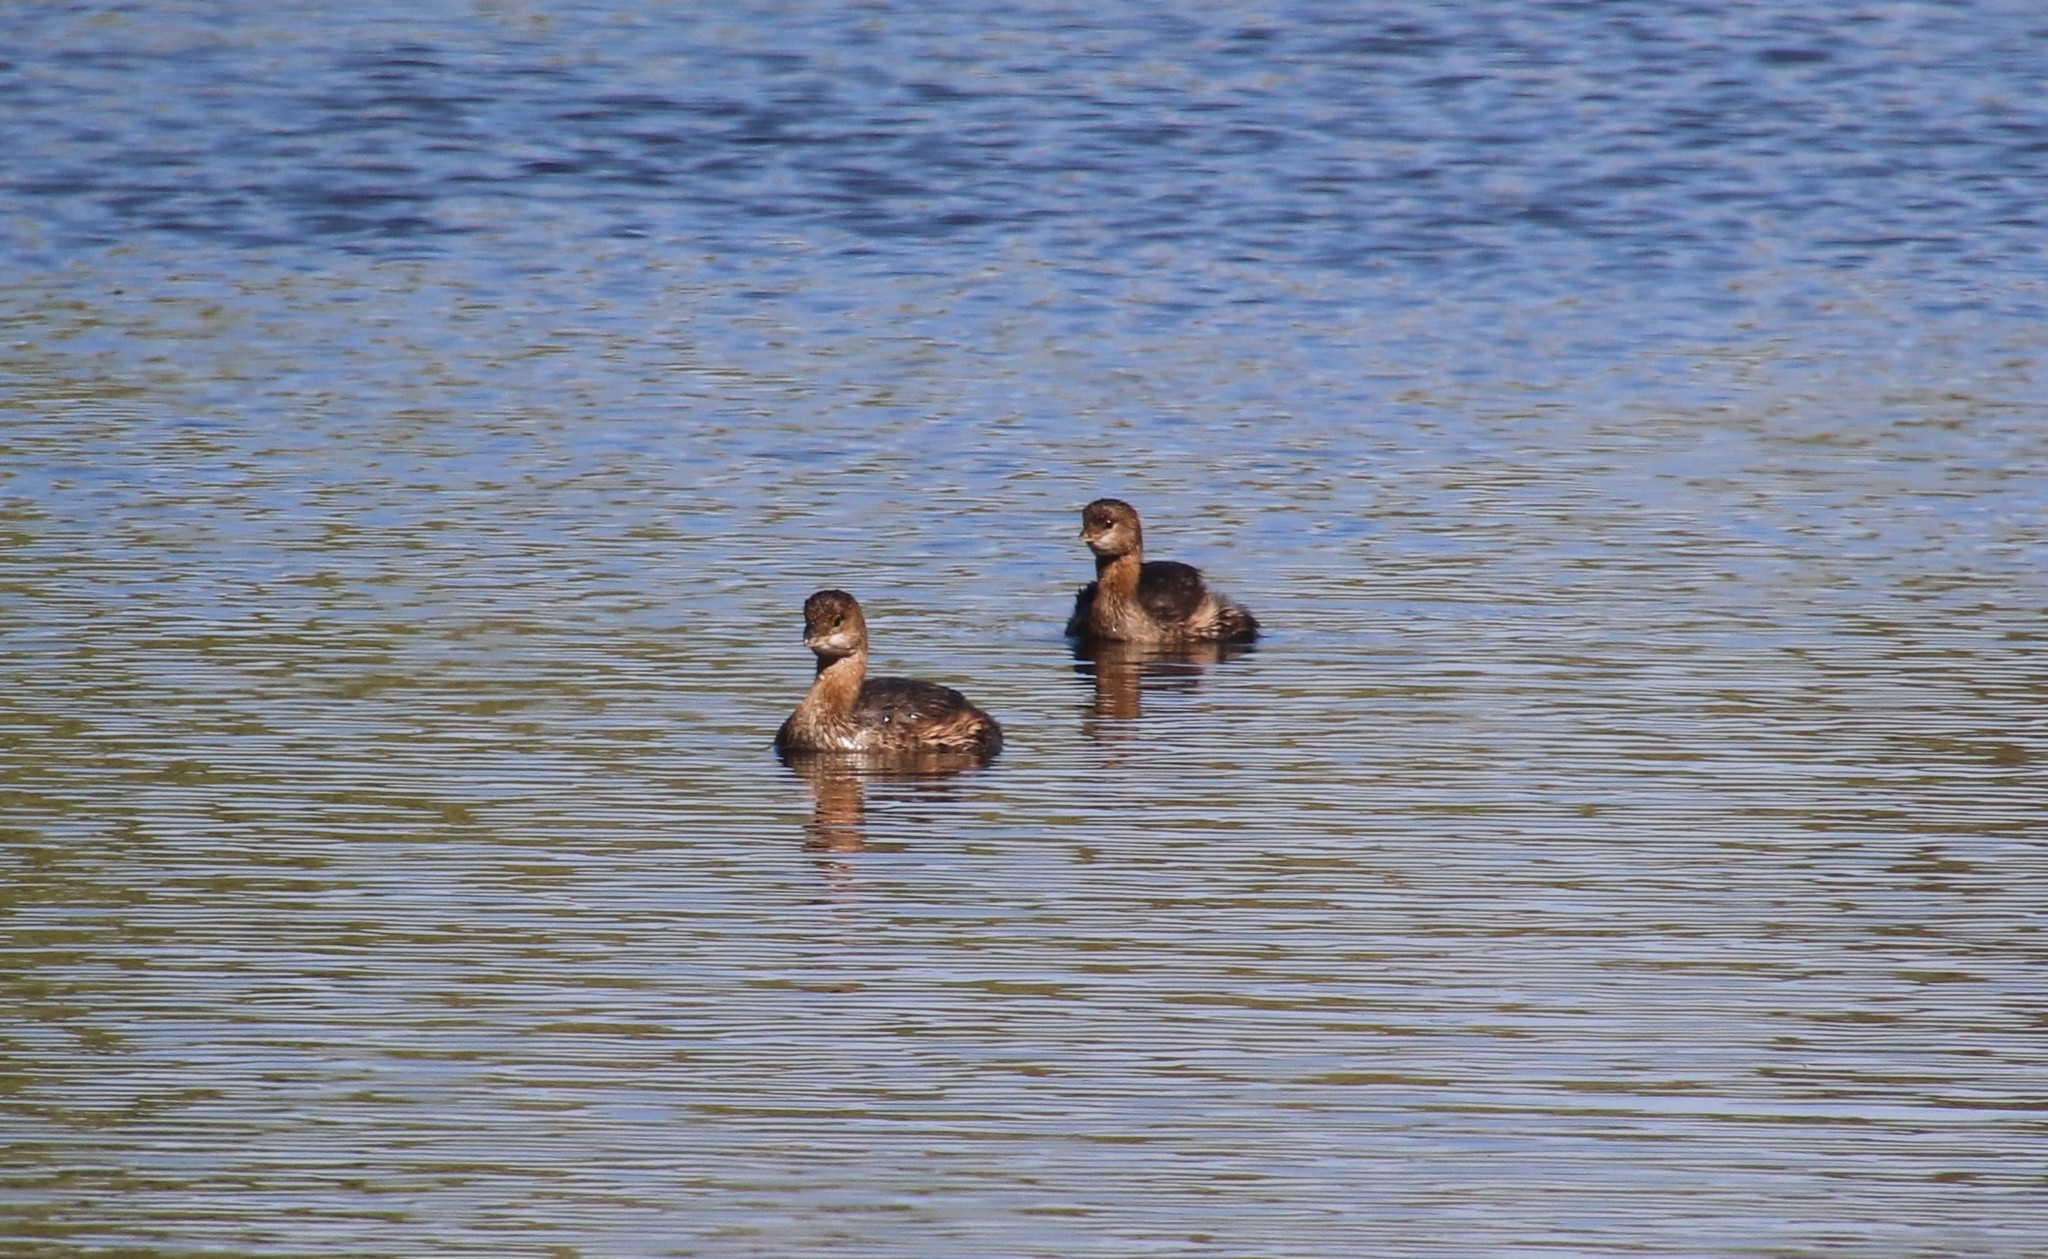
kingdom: Animalia
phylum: Chordata
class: Aves
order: Podicipediformes
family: Podicipedidae
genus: Podilymbus
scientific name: Podilymbus podiceps
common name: Pied-billed grebe
